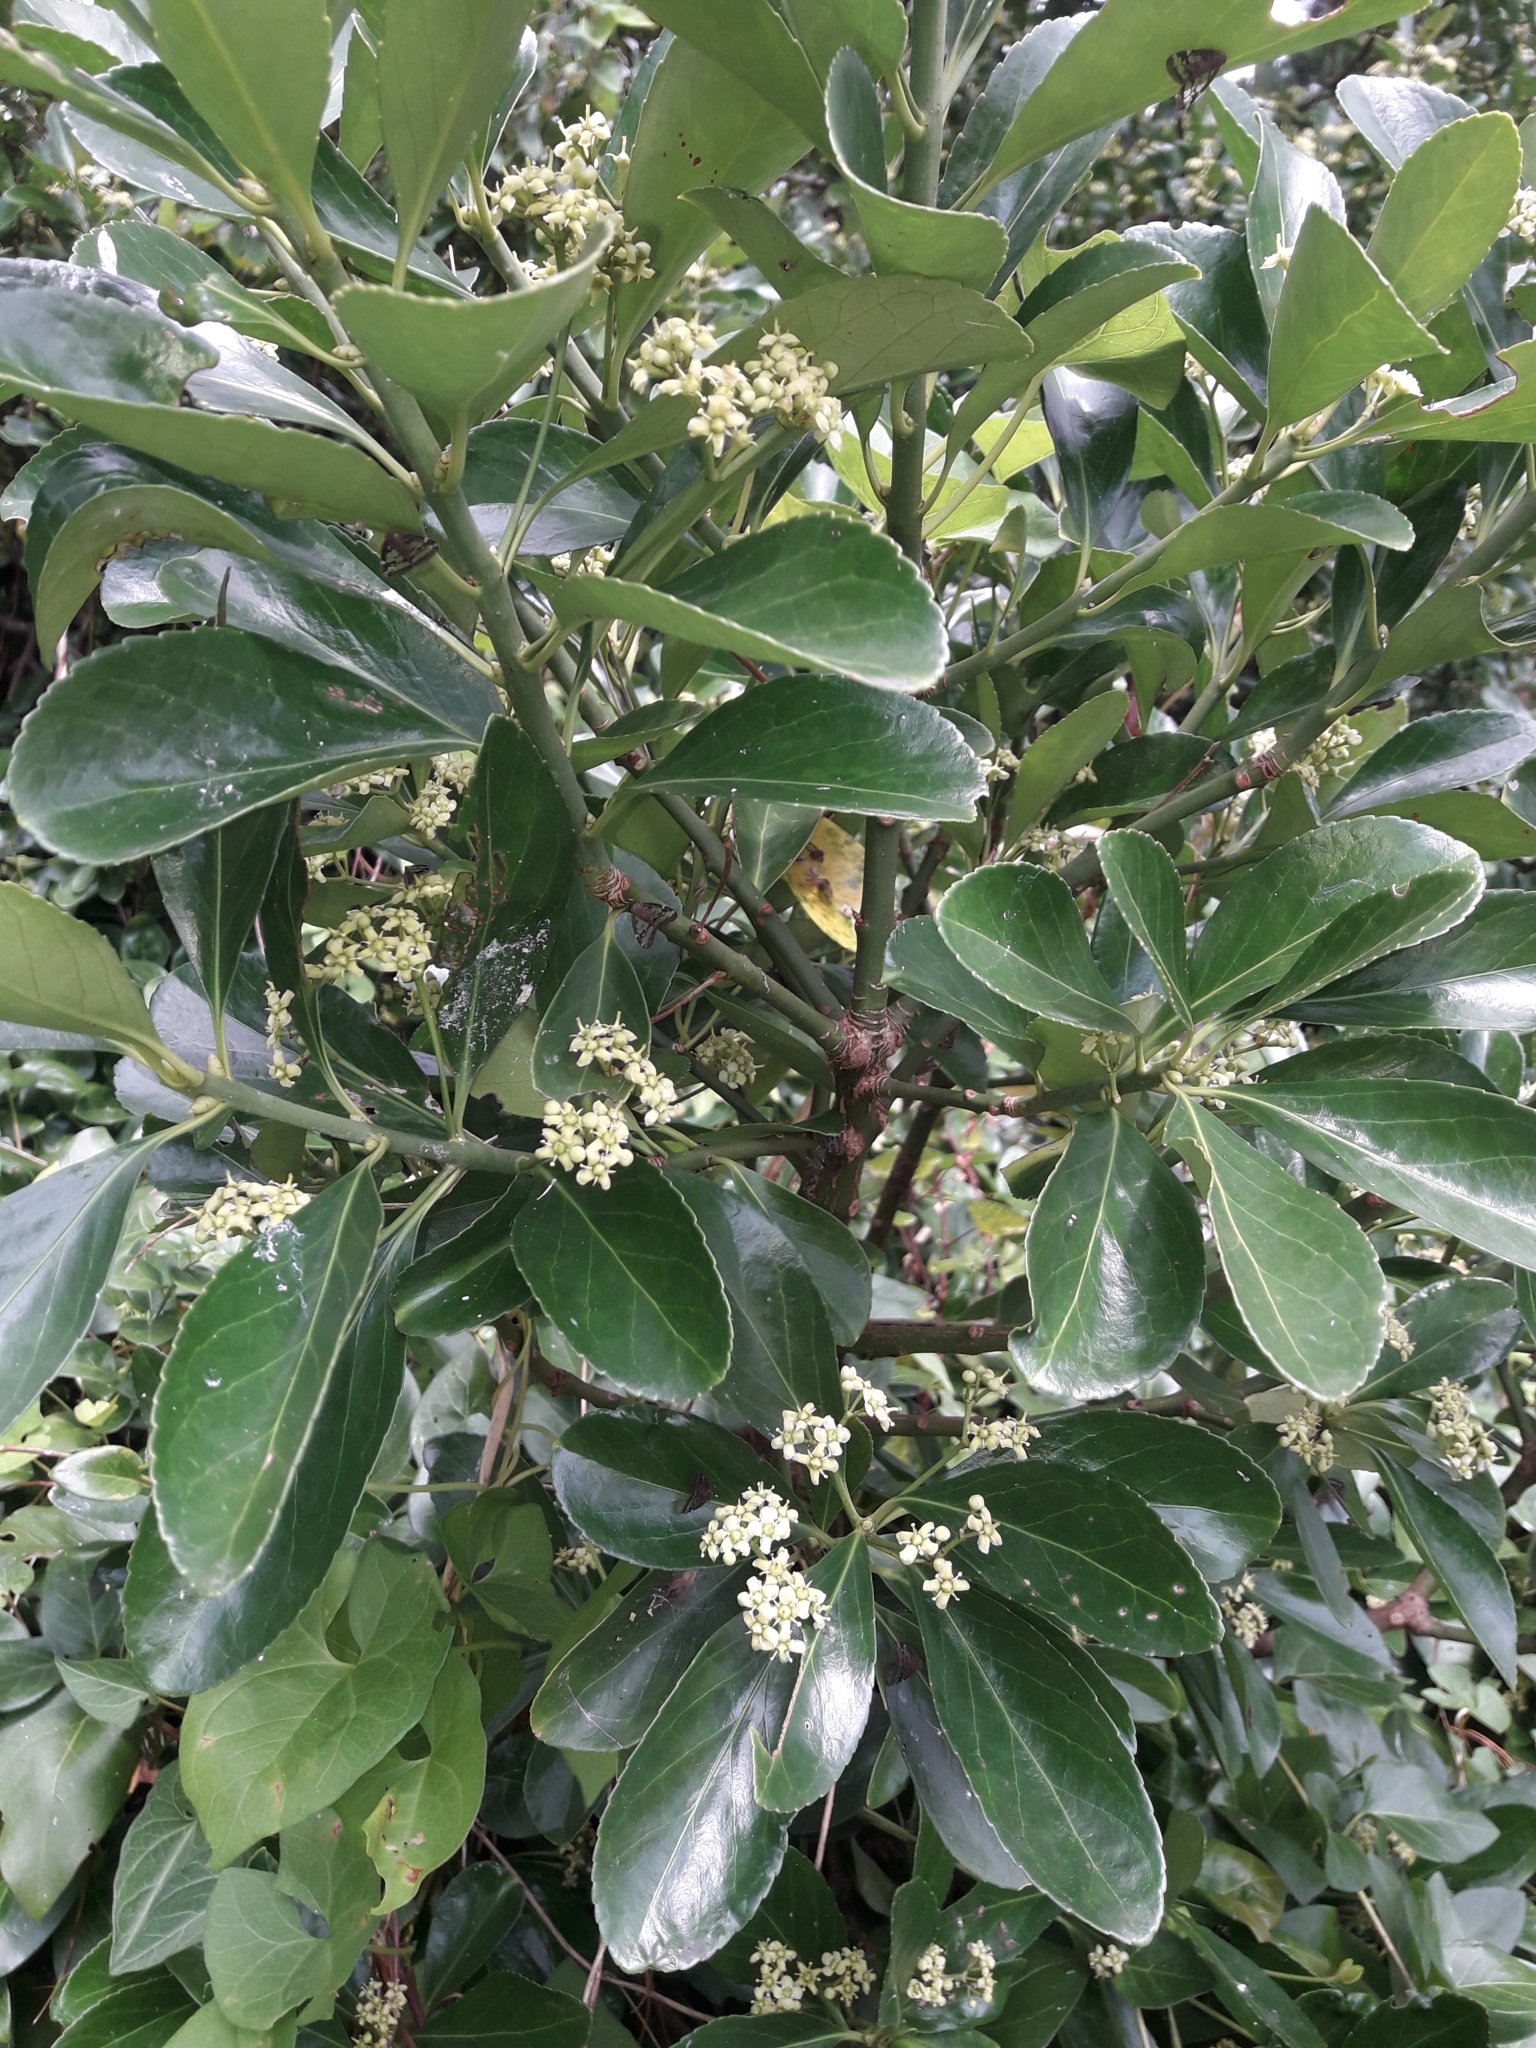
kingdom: Plantae
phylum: Tracheophyta
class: Magnoliopsida
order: Celastrales
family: Celastraceae
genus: Euonymus
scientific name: Euonymus japonicus
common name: Japanese spindletree
